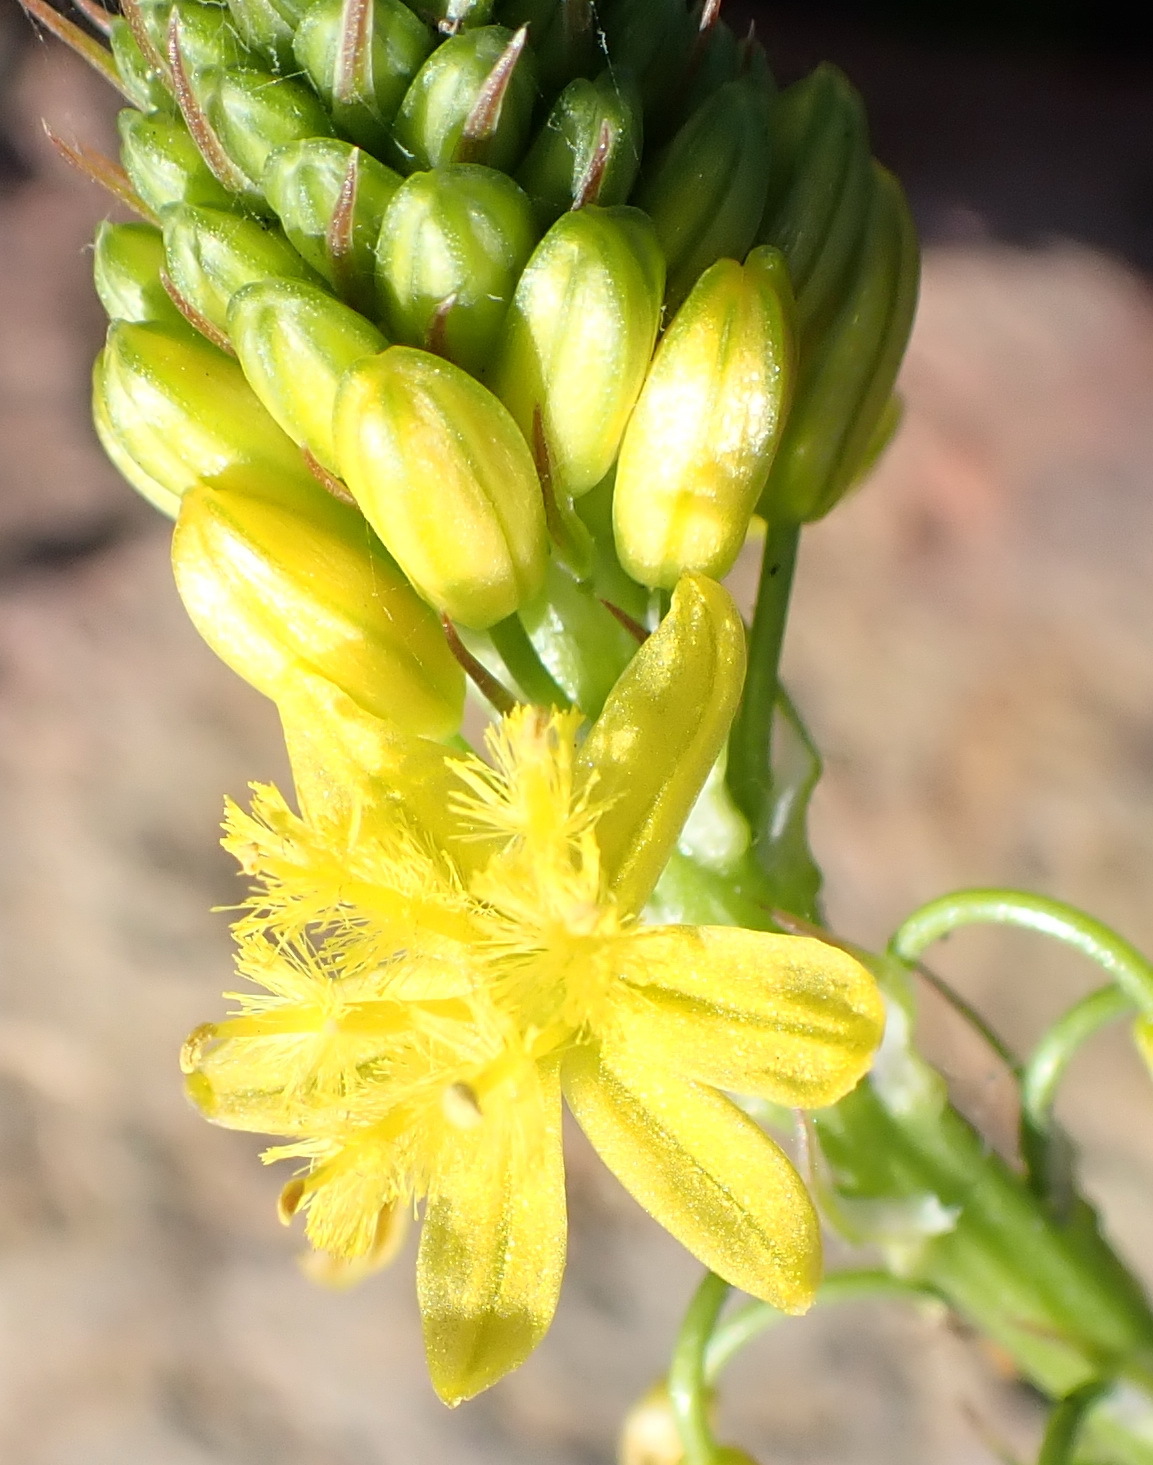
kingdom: Plantae
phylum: Tracheophyta
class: Liliopsida
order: Asparagales
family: Asphodelaceae
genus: Bulbine
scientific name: Bulbine lagopus
